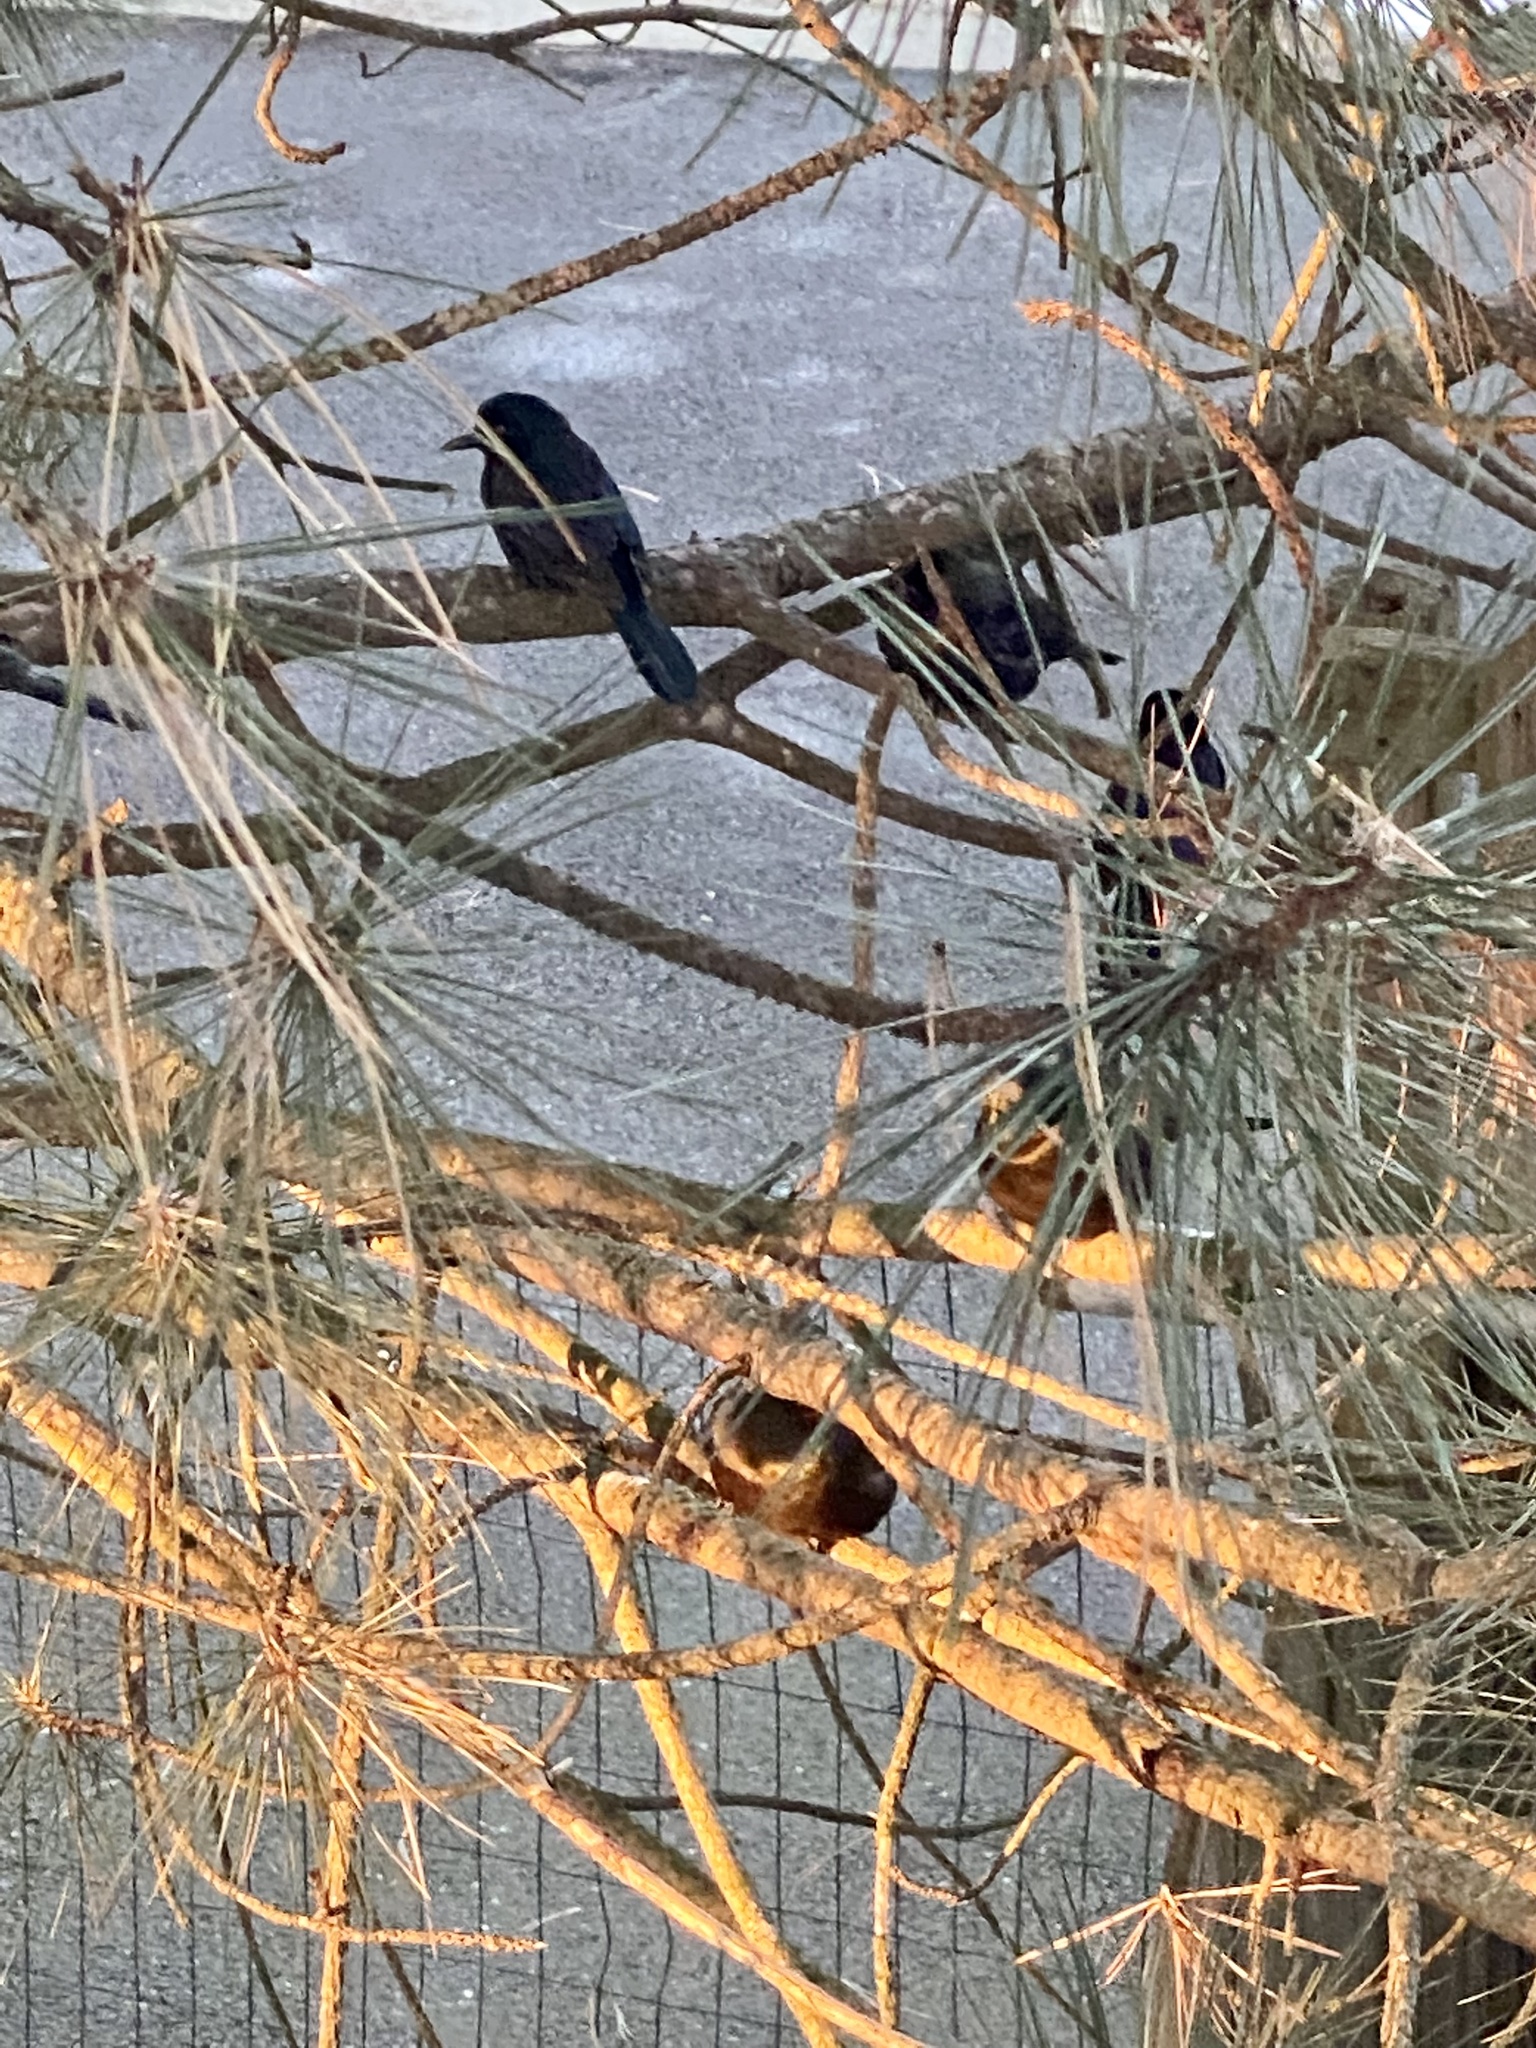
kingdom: Animalia
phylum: Chordata
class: Aves
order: Passeriformes
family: Icteridae
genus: Quiscalus
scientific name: Quiscalus quiscula
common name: Common grackle
